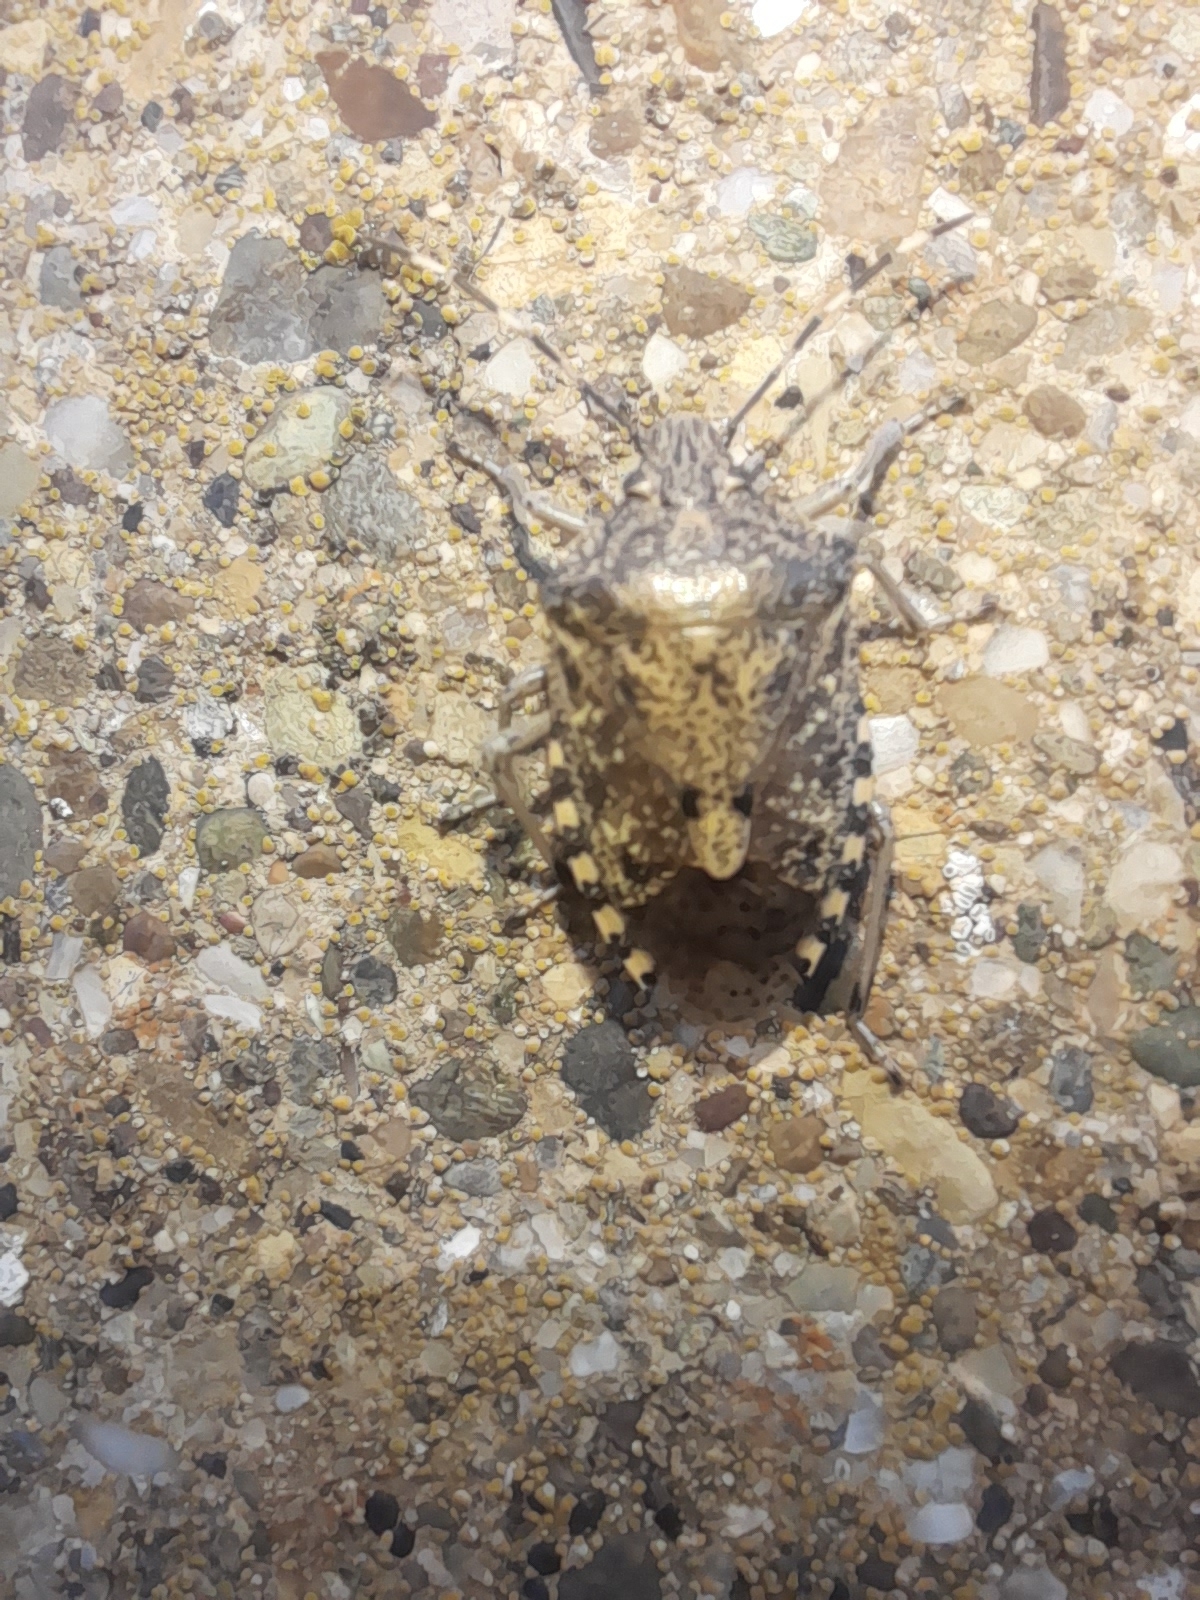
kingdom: Animalia
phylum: Arthropoda
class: Insecta
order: Hemiptera
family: Pentatomidae
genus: Rhaphigaster
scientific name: Rhaphigaster nebulosa
